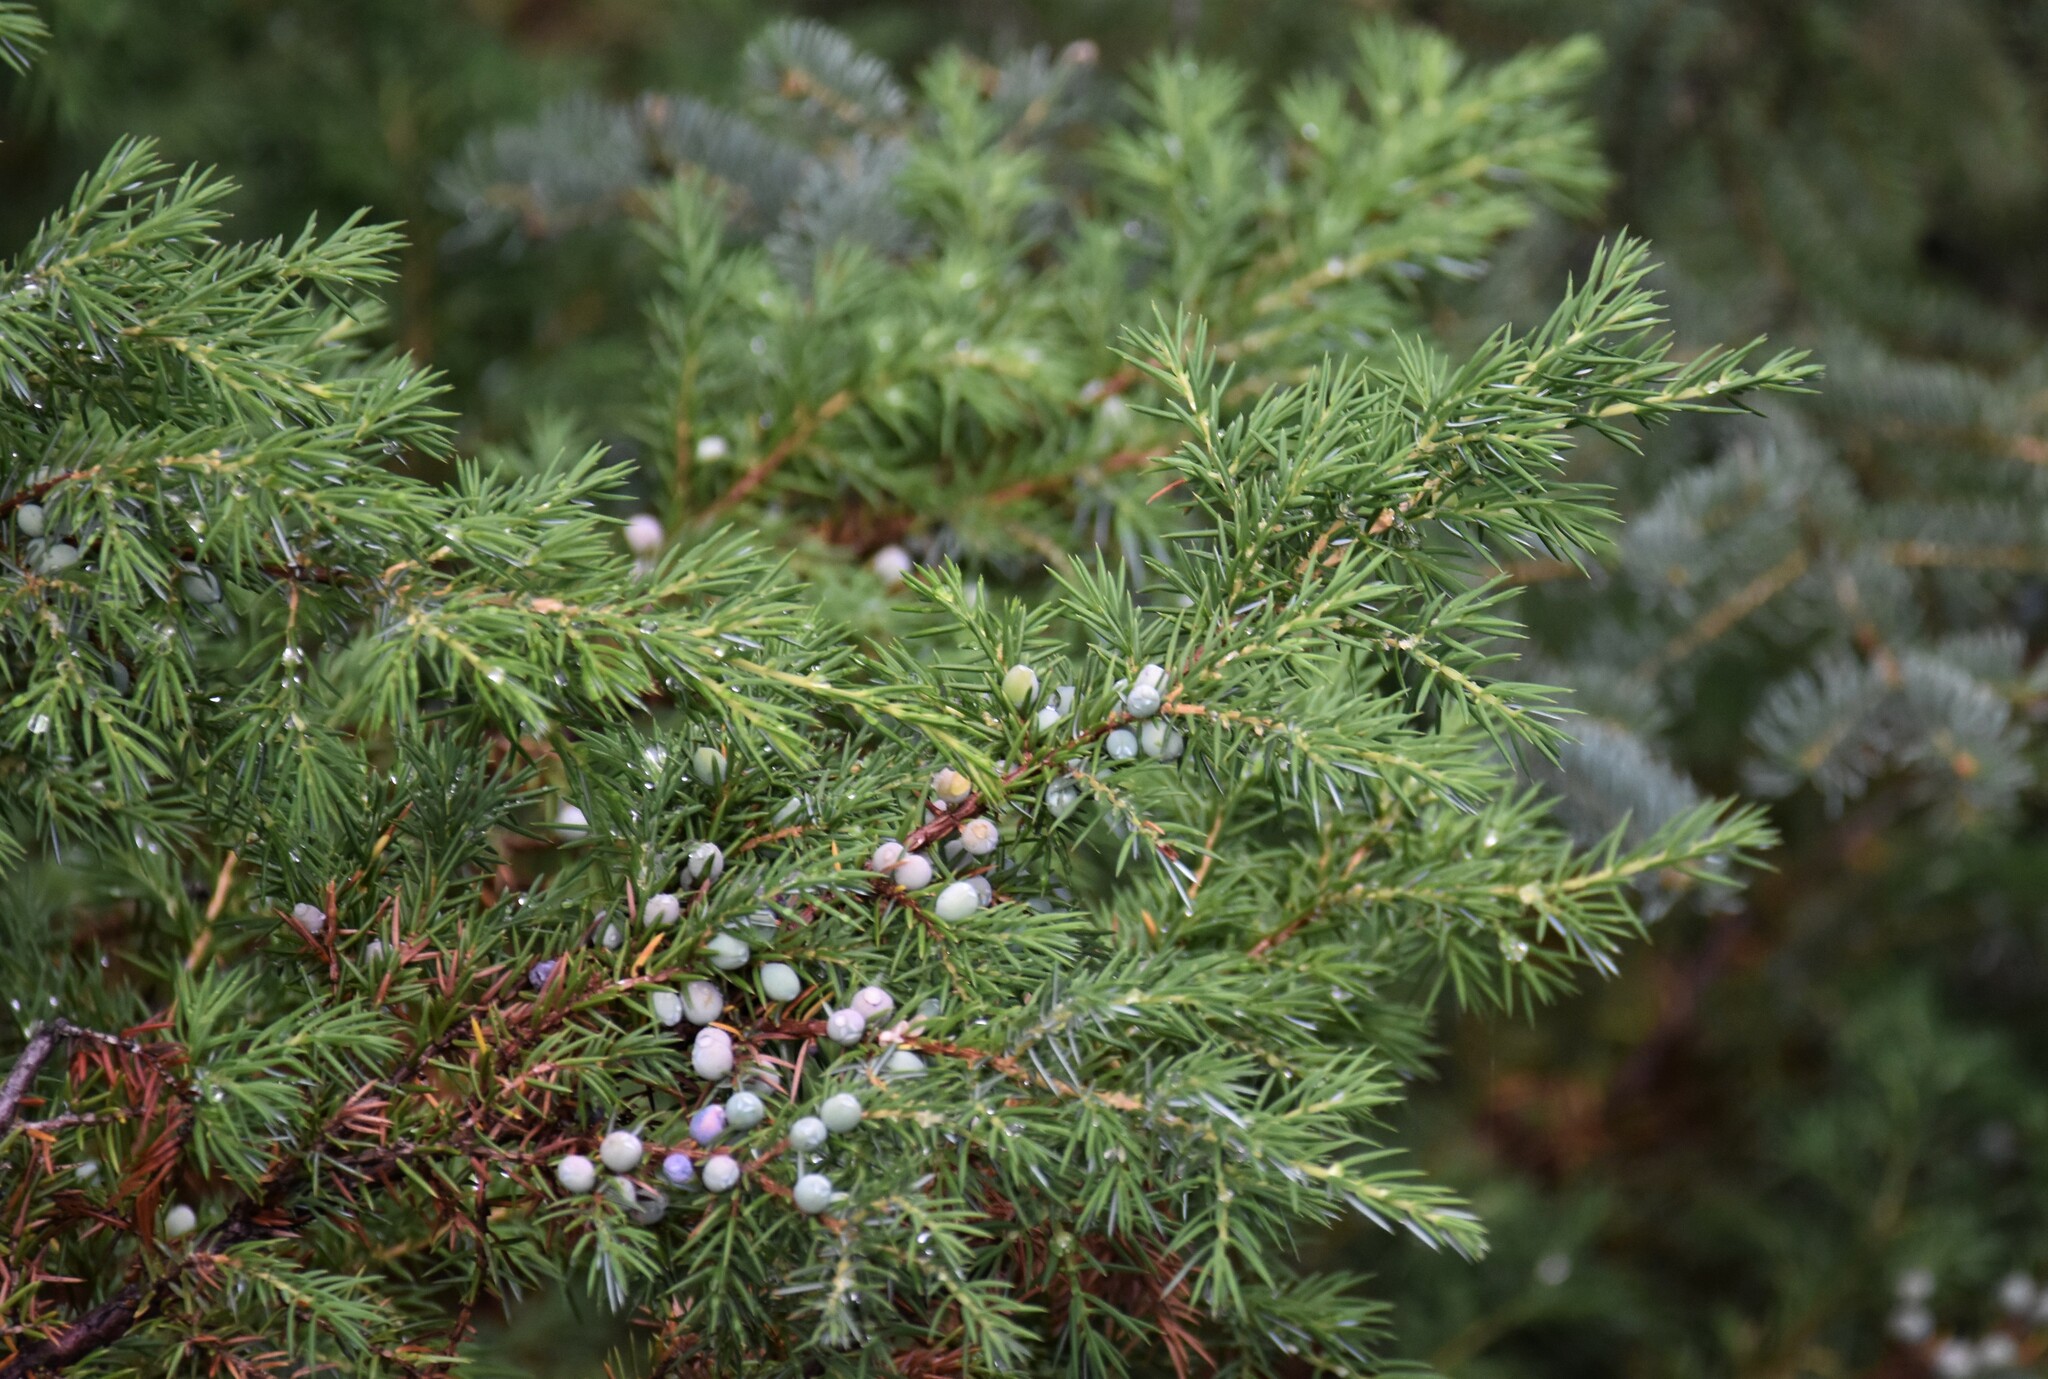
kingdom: Plantae
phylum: Tracheophyta
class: Pinopsida
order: Pinales
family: Cupressaceae
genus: Juniperus
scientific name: Juniperus communis
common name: Common juniper
